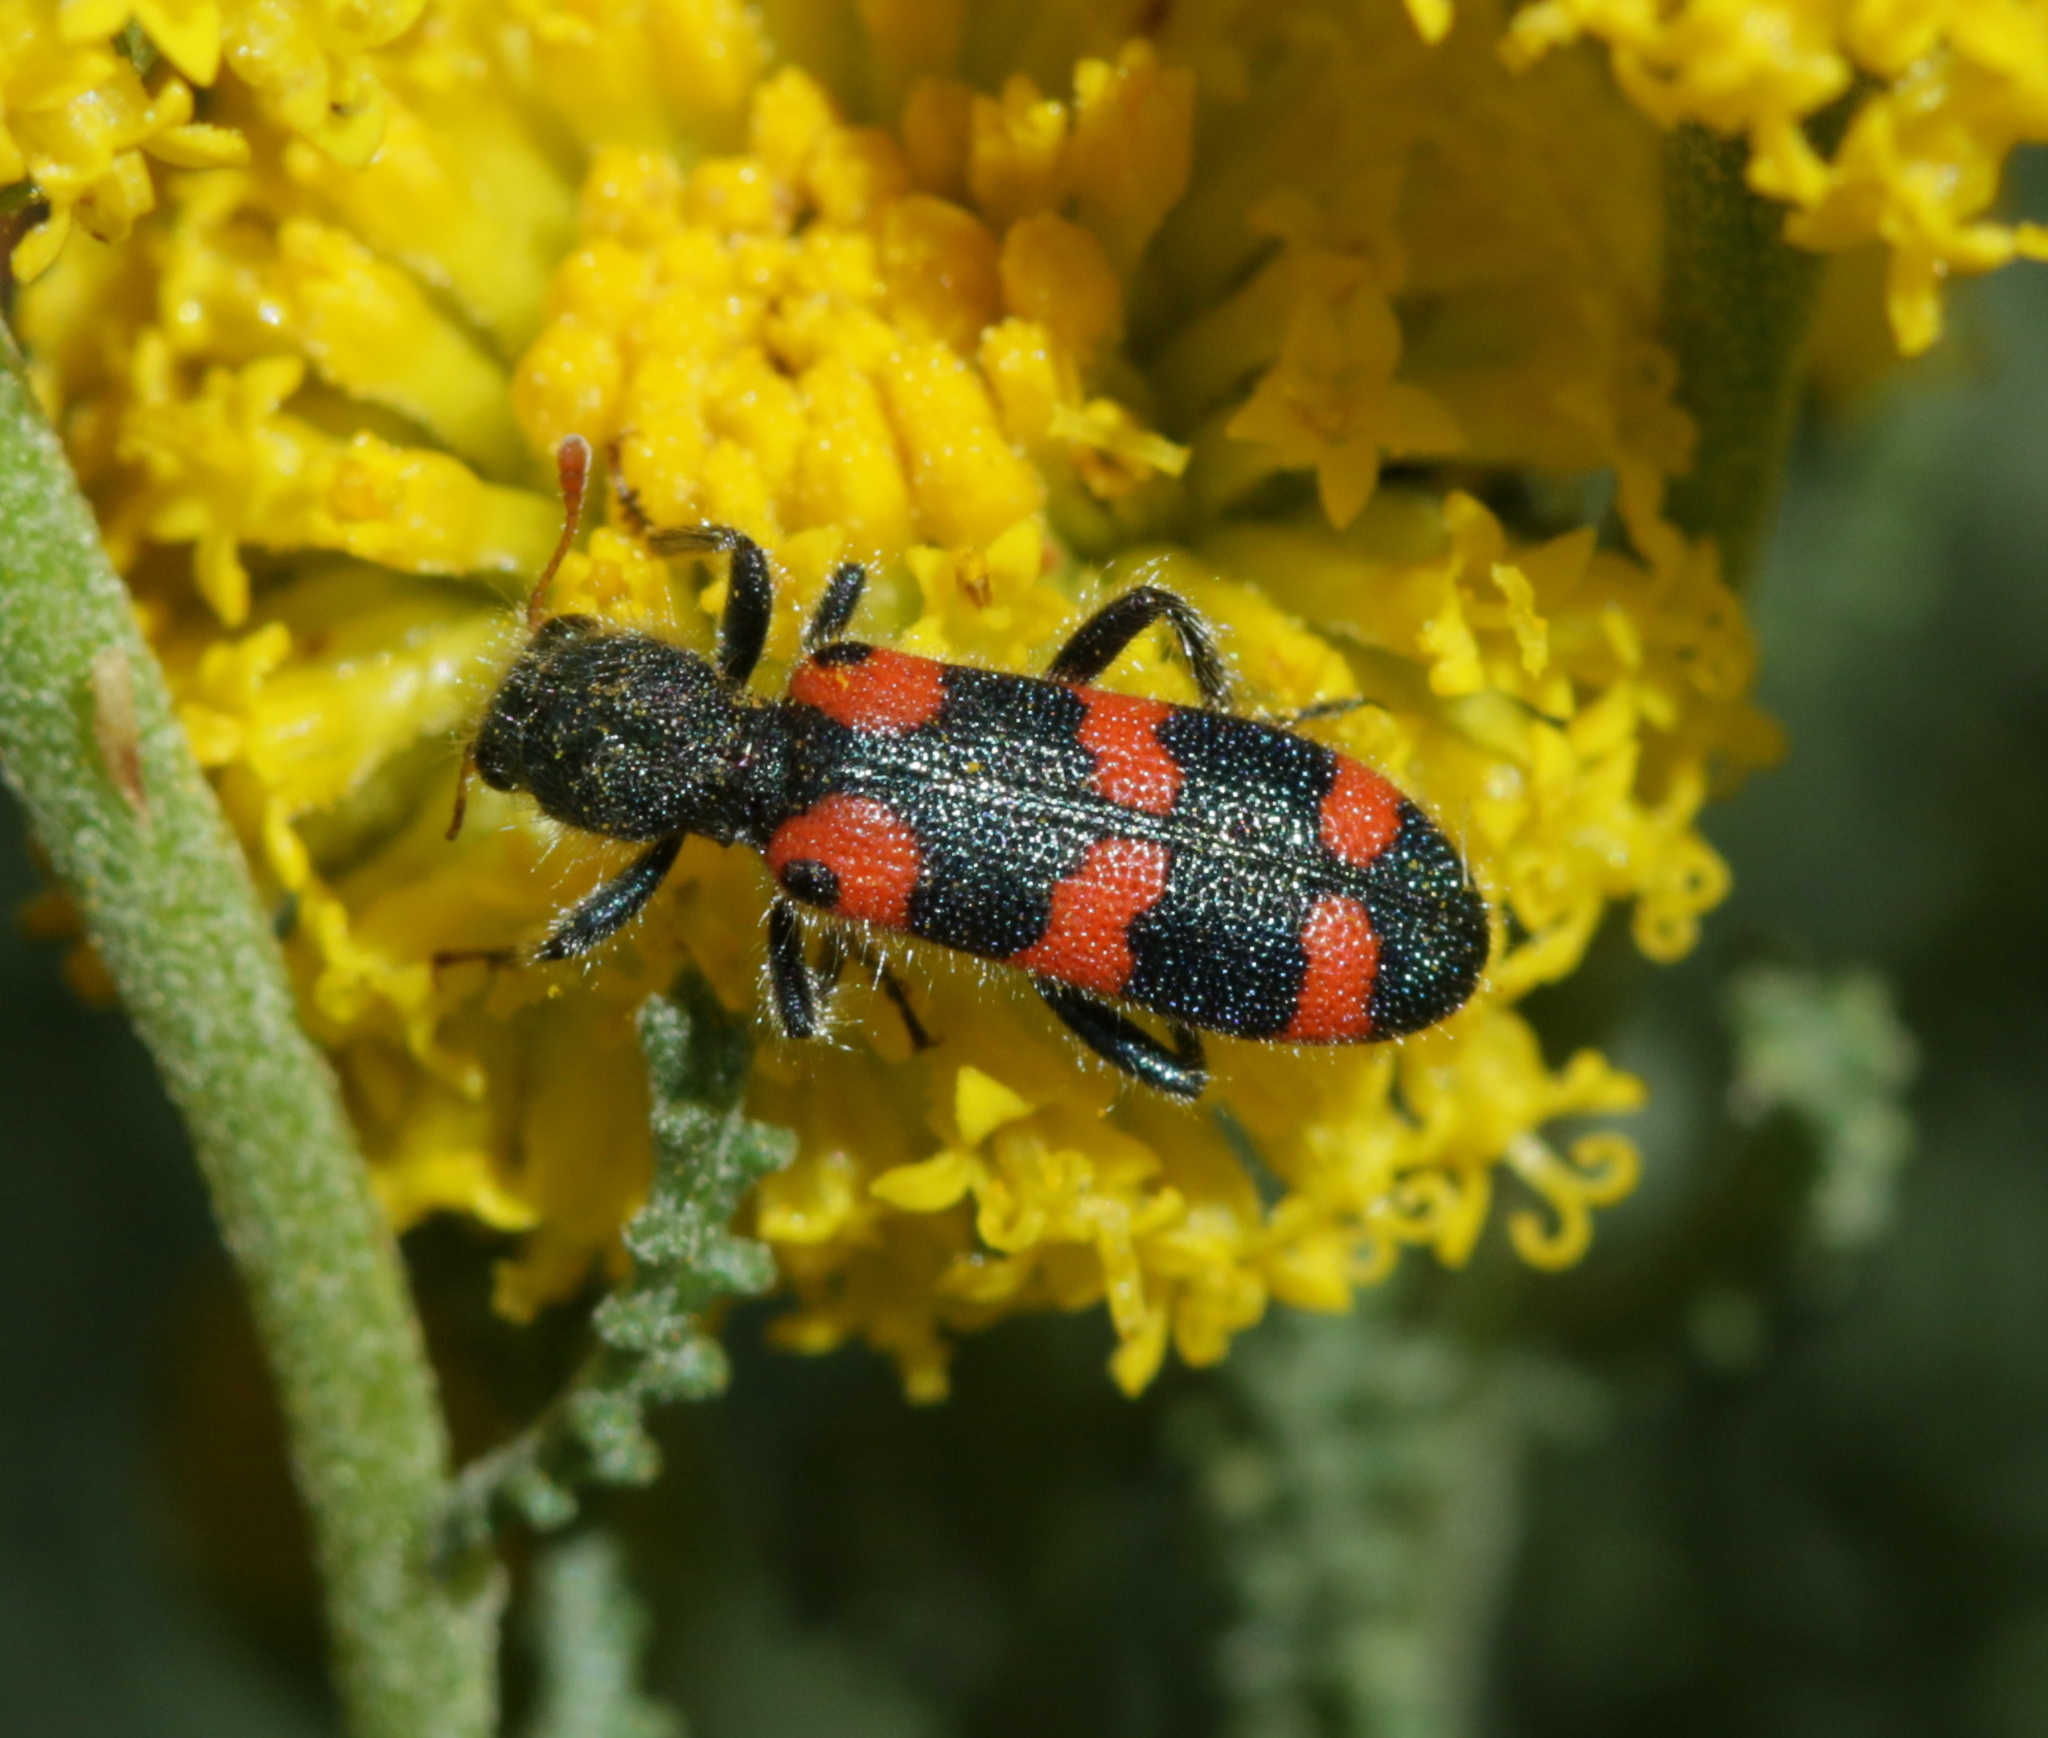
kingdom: Animalia
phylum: Arthropoda
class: Insecta
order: Coleoptera
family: Cleridae
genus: Trichodes
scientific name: Trichodes leucopsideus
